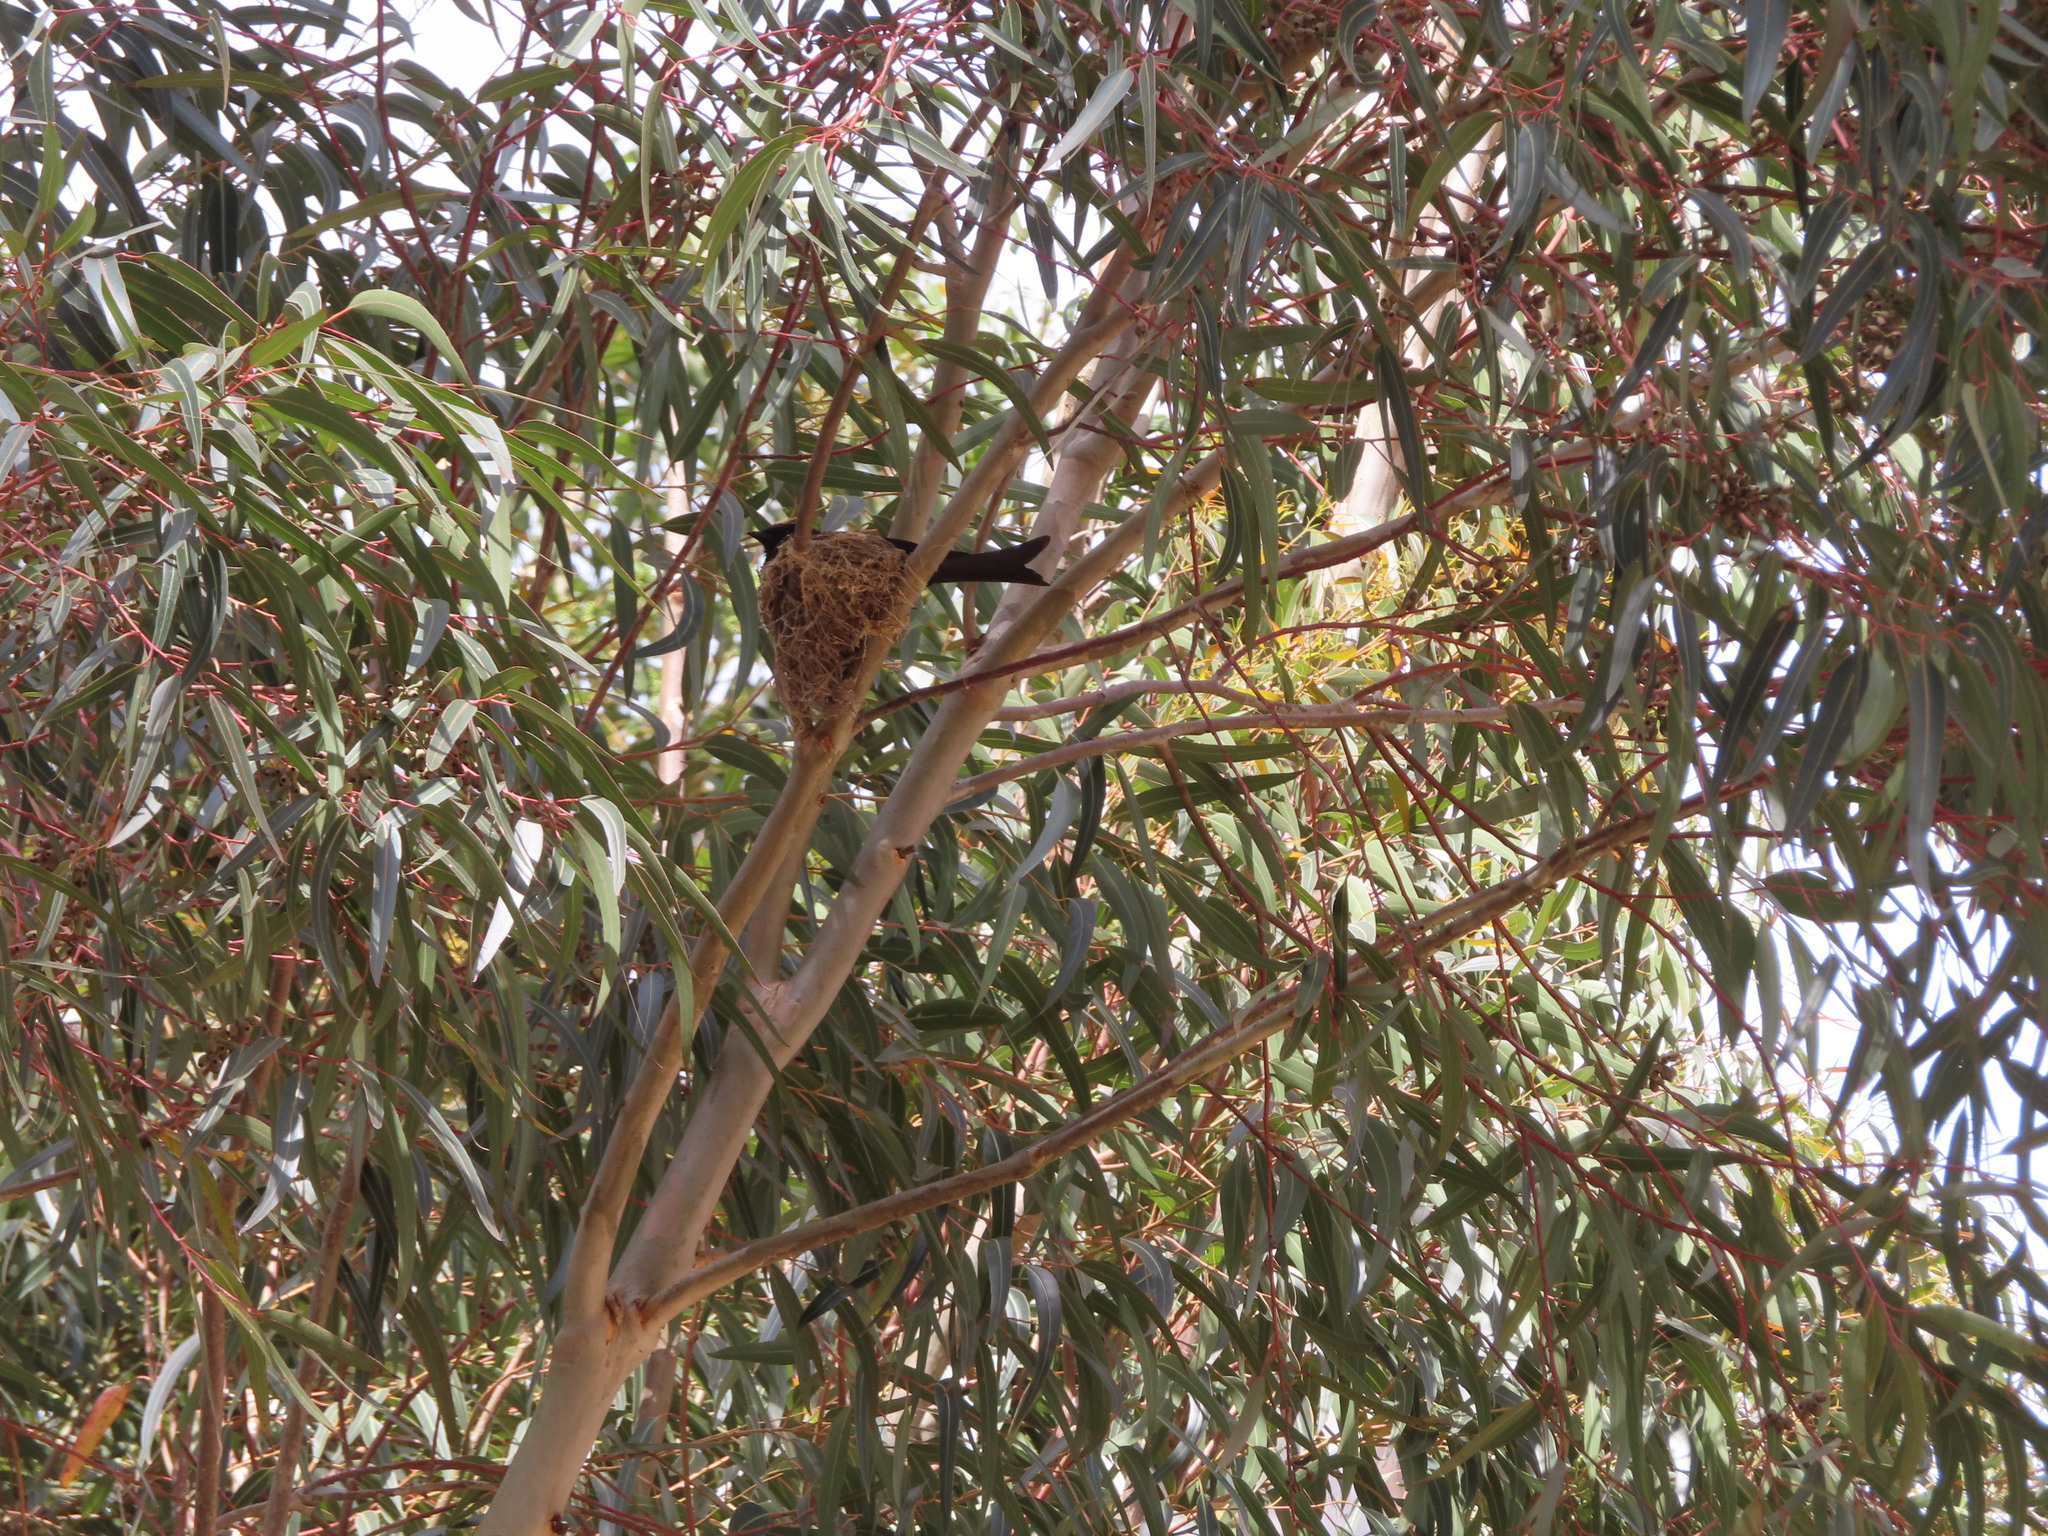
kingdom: Animalia
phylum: Chordata
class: Aves
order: Passeriformes
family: Dicruridae
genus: Dicrurus
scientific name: Dicrurus adsimilis
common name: Fork-tailed drongo
